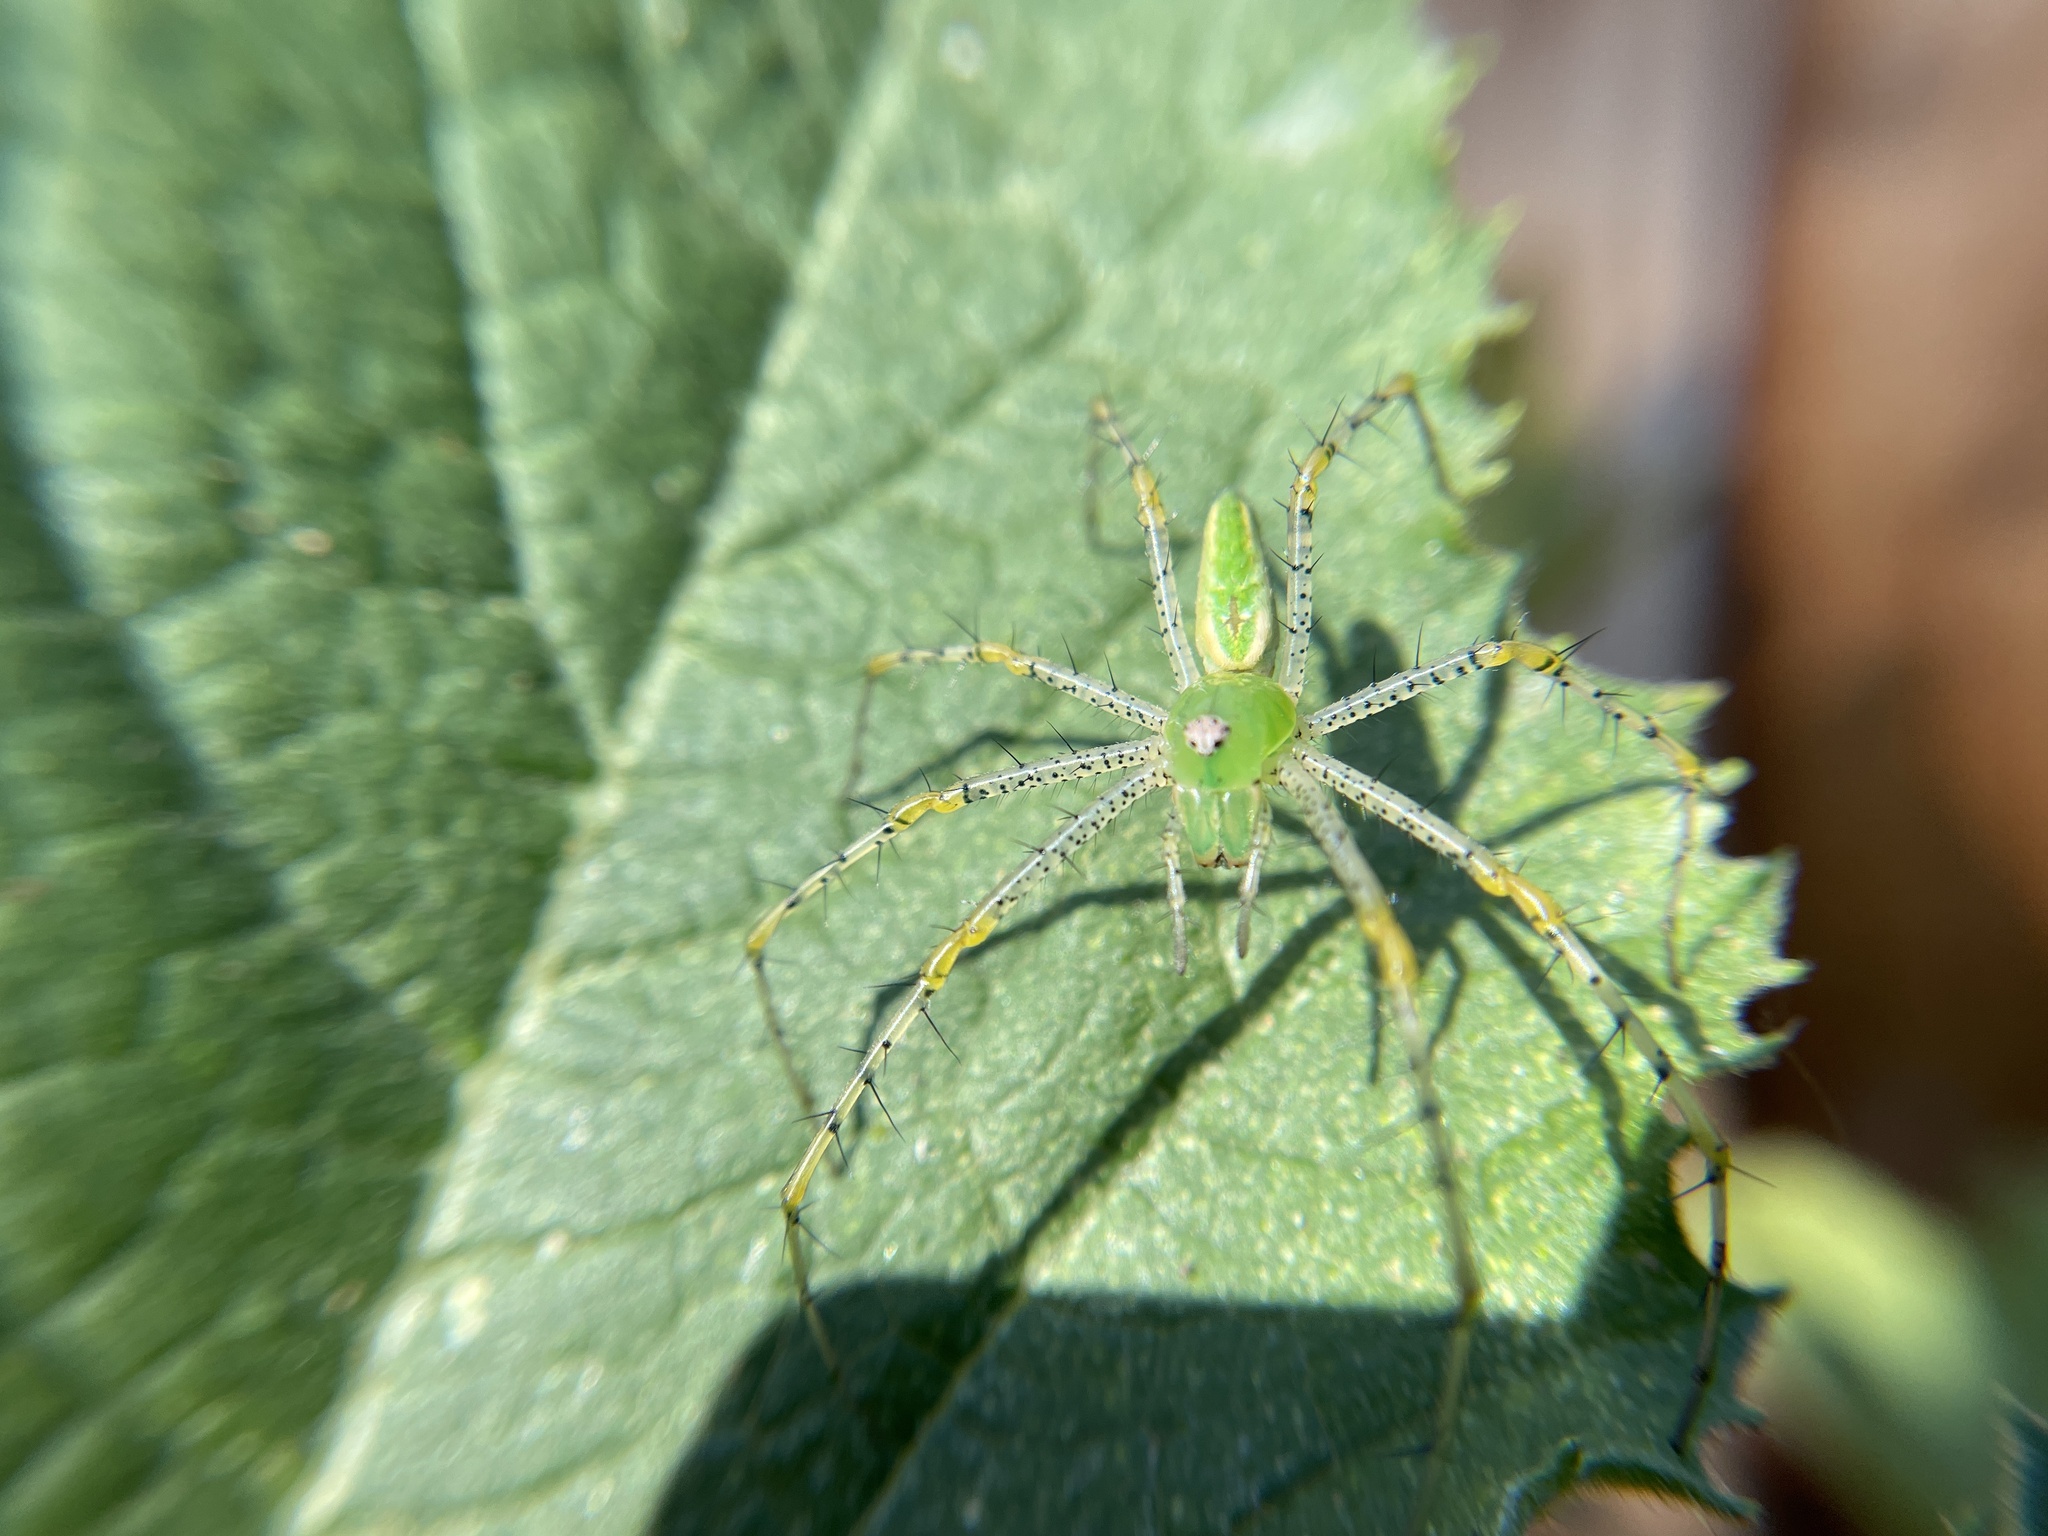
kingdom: Animalia
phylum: Arthropoda
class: Arachnida
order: Araneae
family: Oxyopidae
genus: Peucetia
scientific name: Peucetia viridans
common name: Lynx spiders
